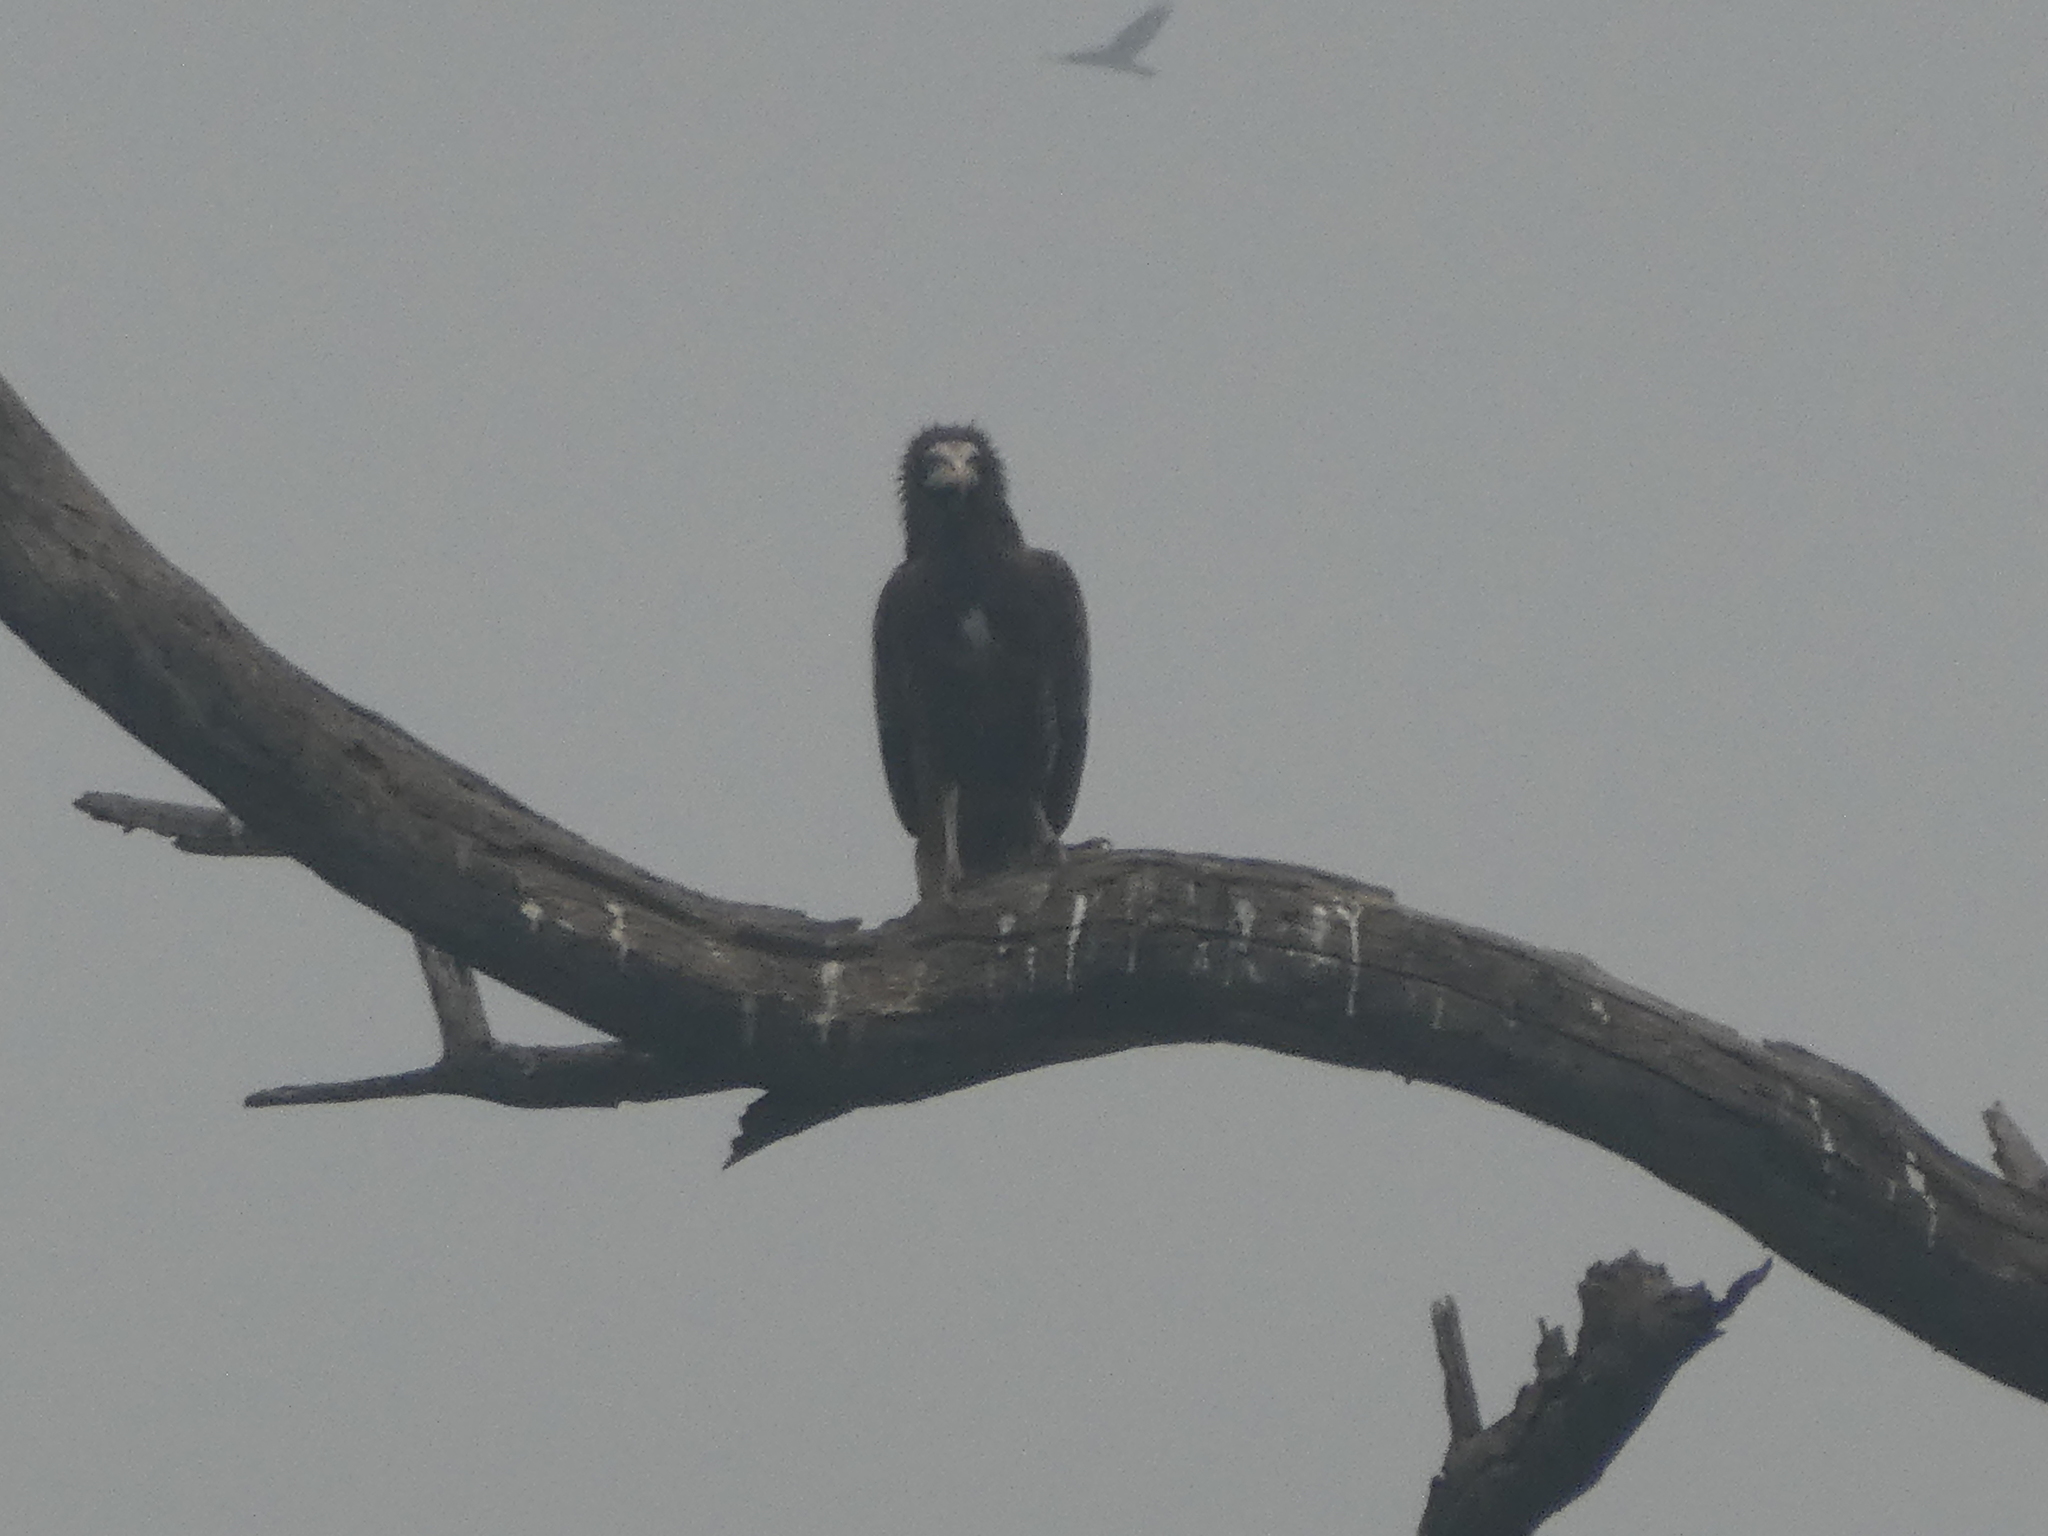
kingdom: Animalia
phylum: Chordata
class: Aves
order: Accipitriformes
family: Accipitridae
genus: Neophron
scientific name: Neophron percnopterus
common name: Egyptian vulture
